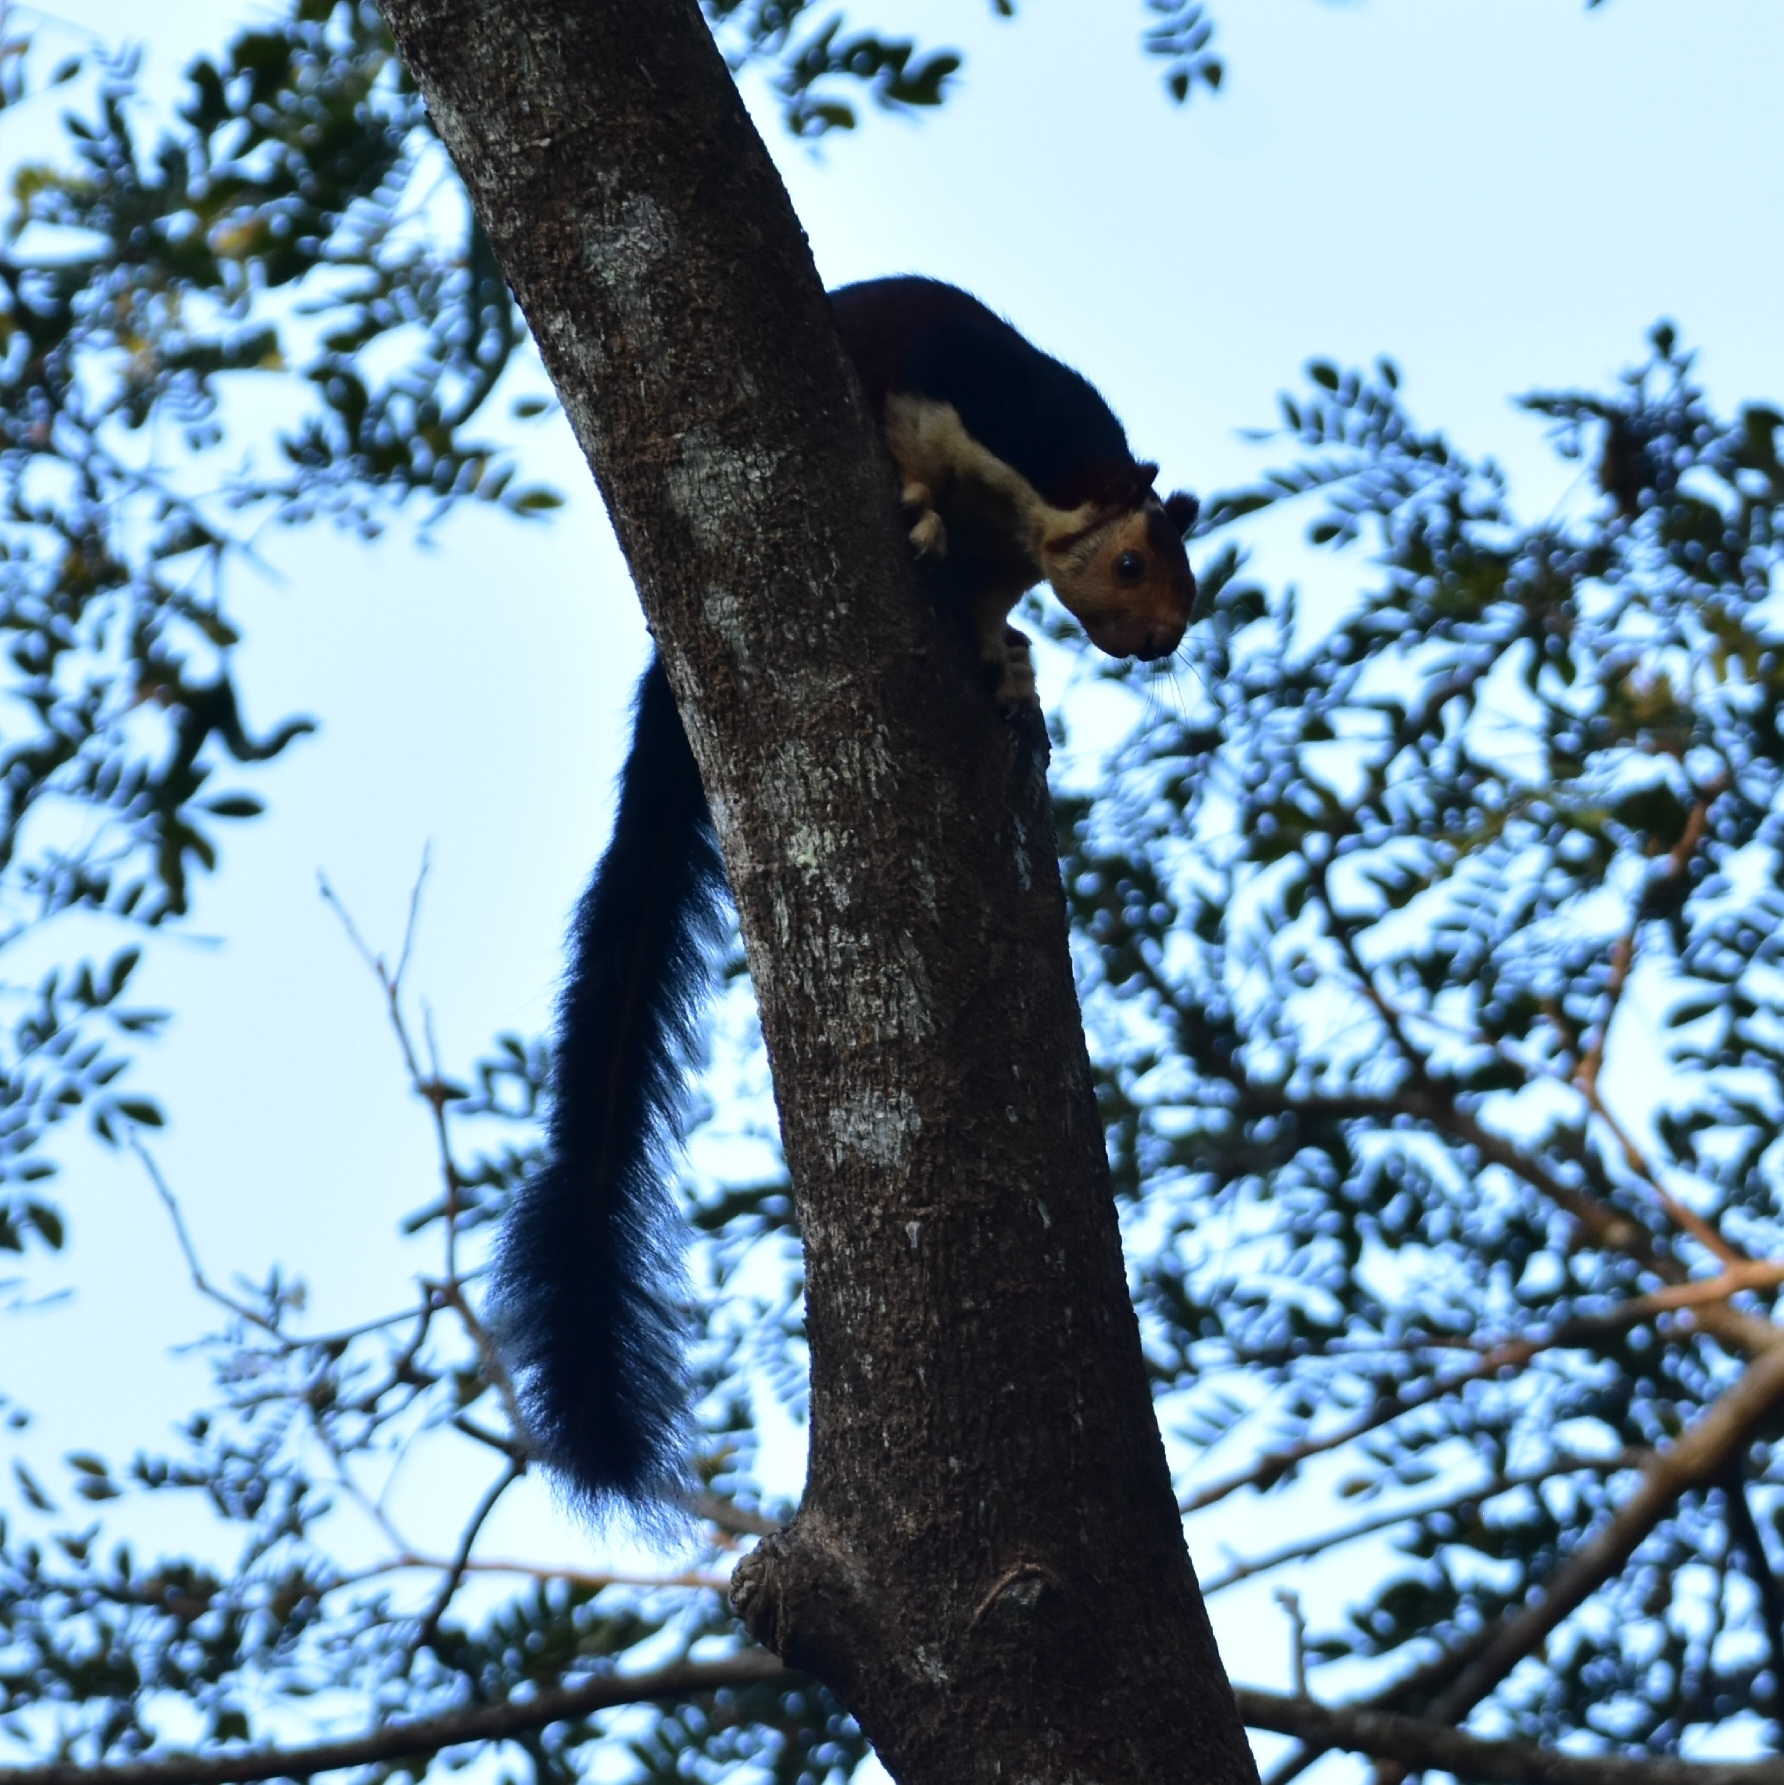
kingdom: Animalia
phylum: Chordata
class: Mammalia
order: Rodentia
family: Sciuridae
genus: Ratufa
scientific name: Ratufa indica
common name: Indian giant squirrel
